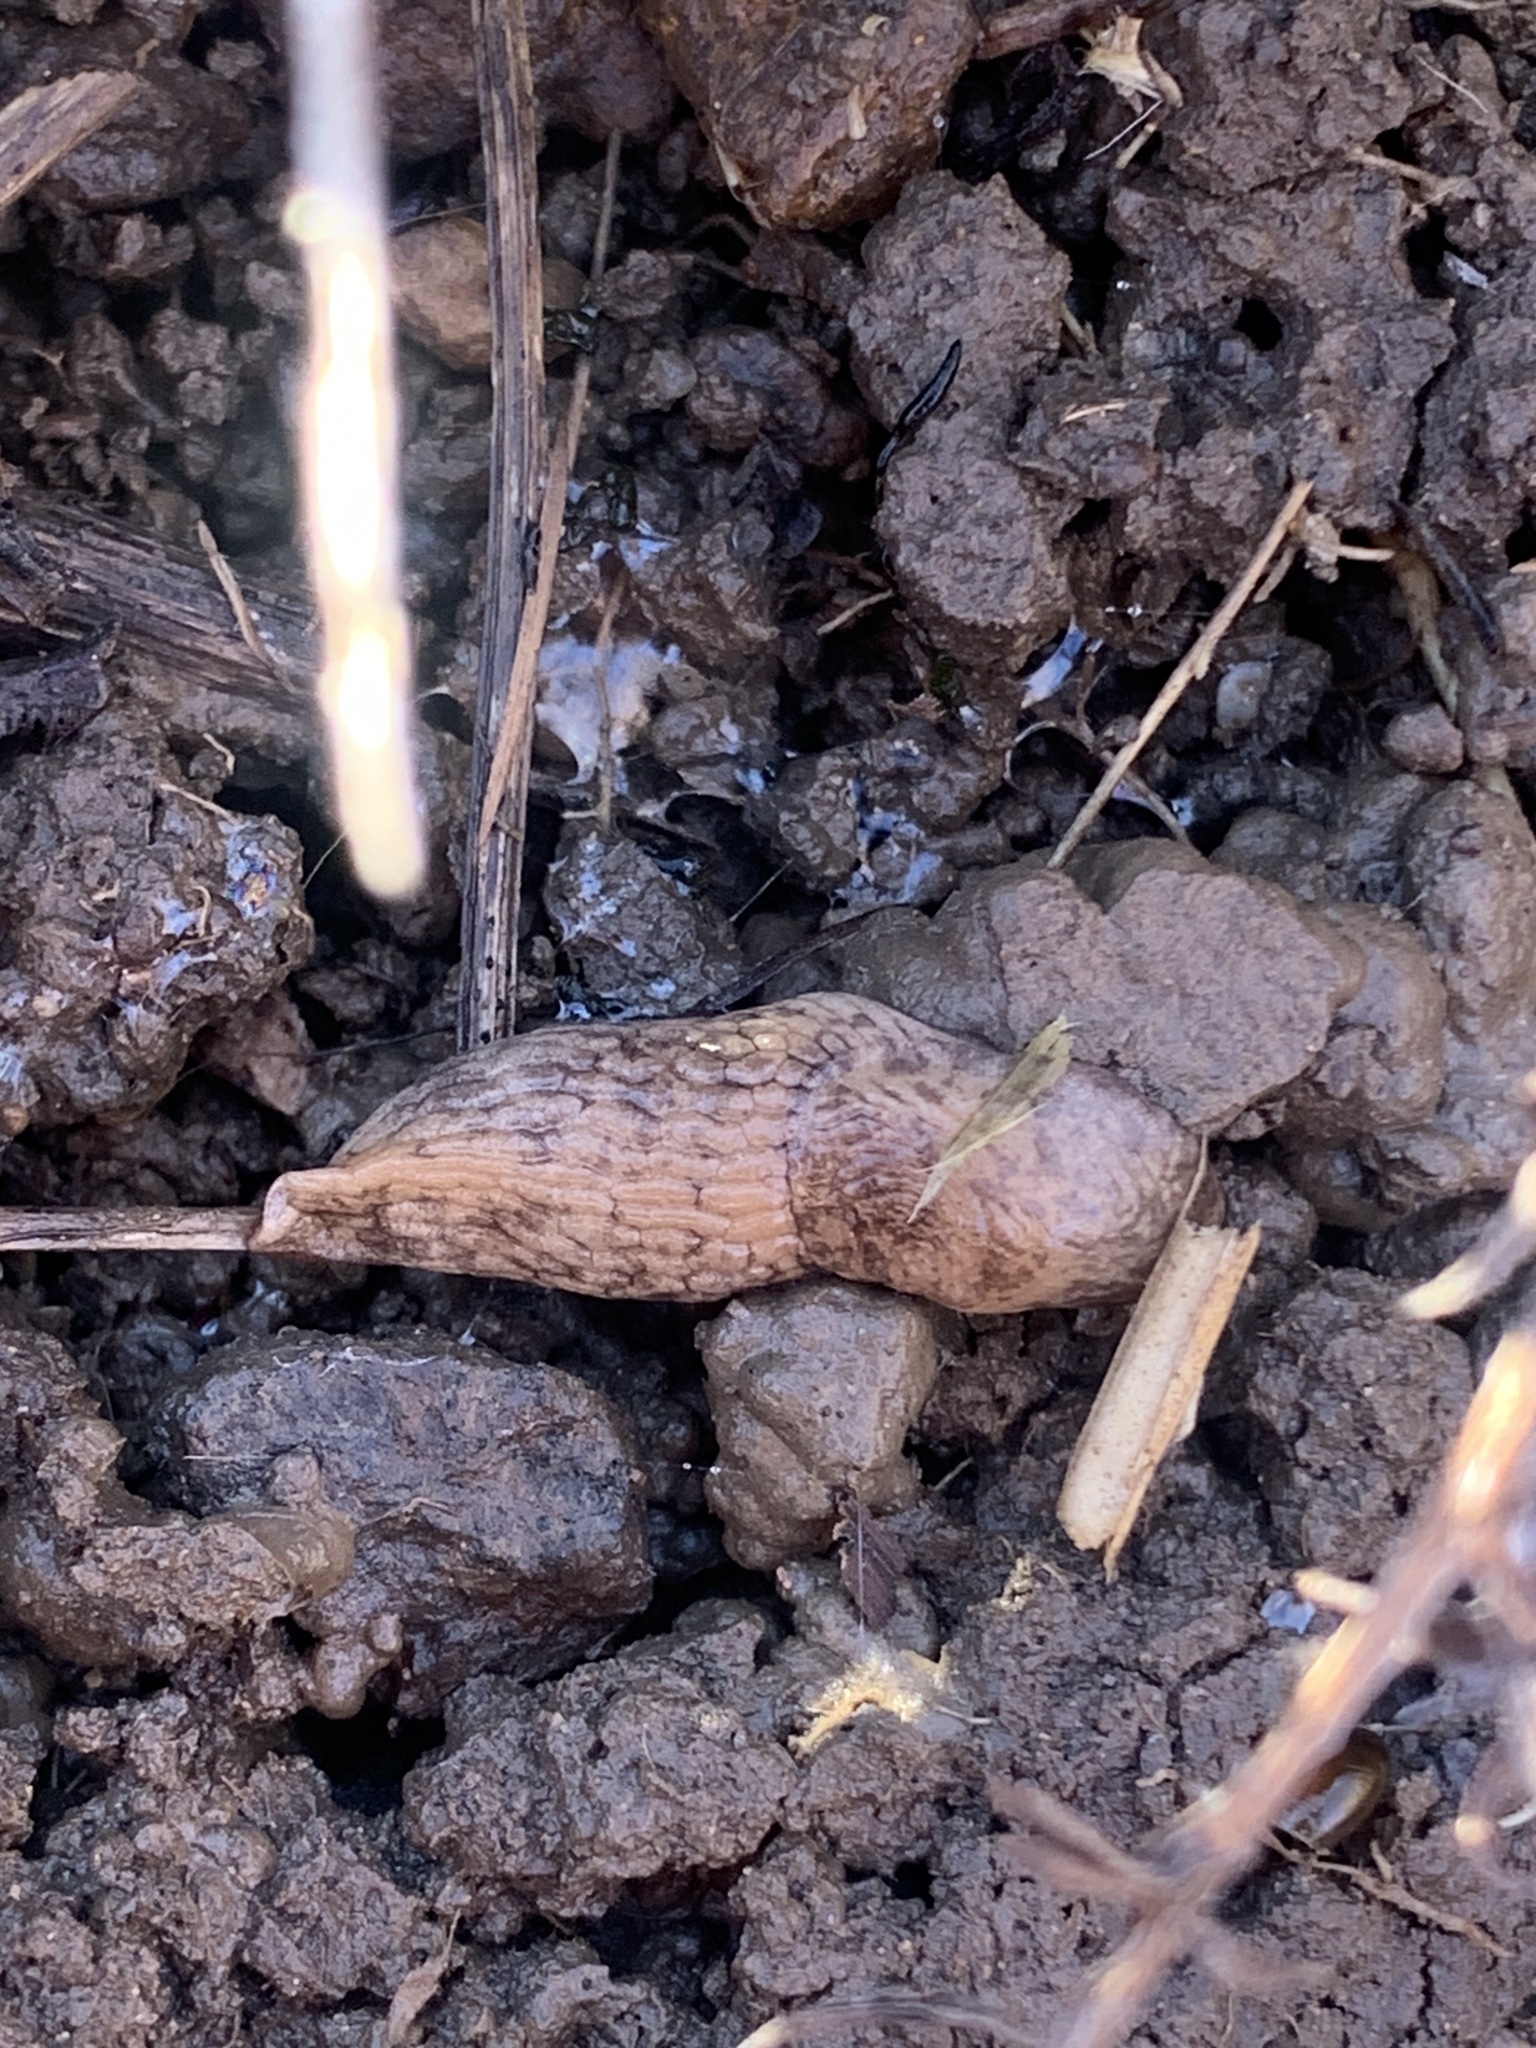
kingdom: Animalia
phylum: Mollusca
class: Gastropoda
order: Stylommatophora
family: Agriolimacidae
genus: Deroceras
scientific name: Deroceras reticulatum
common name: Gray field slug
